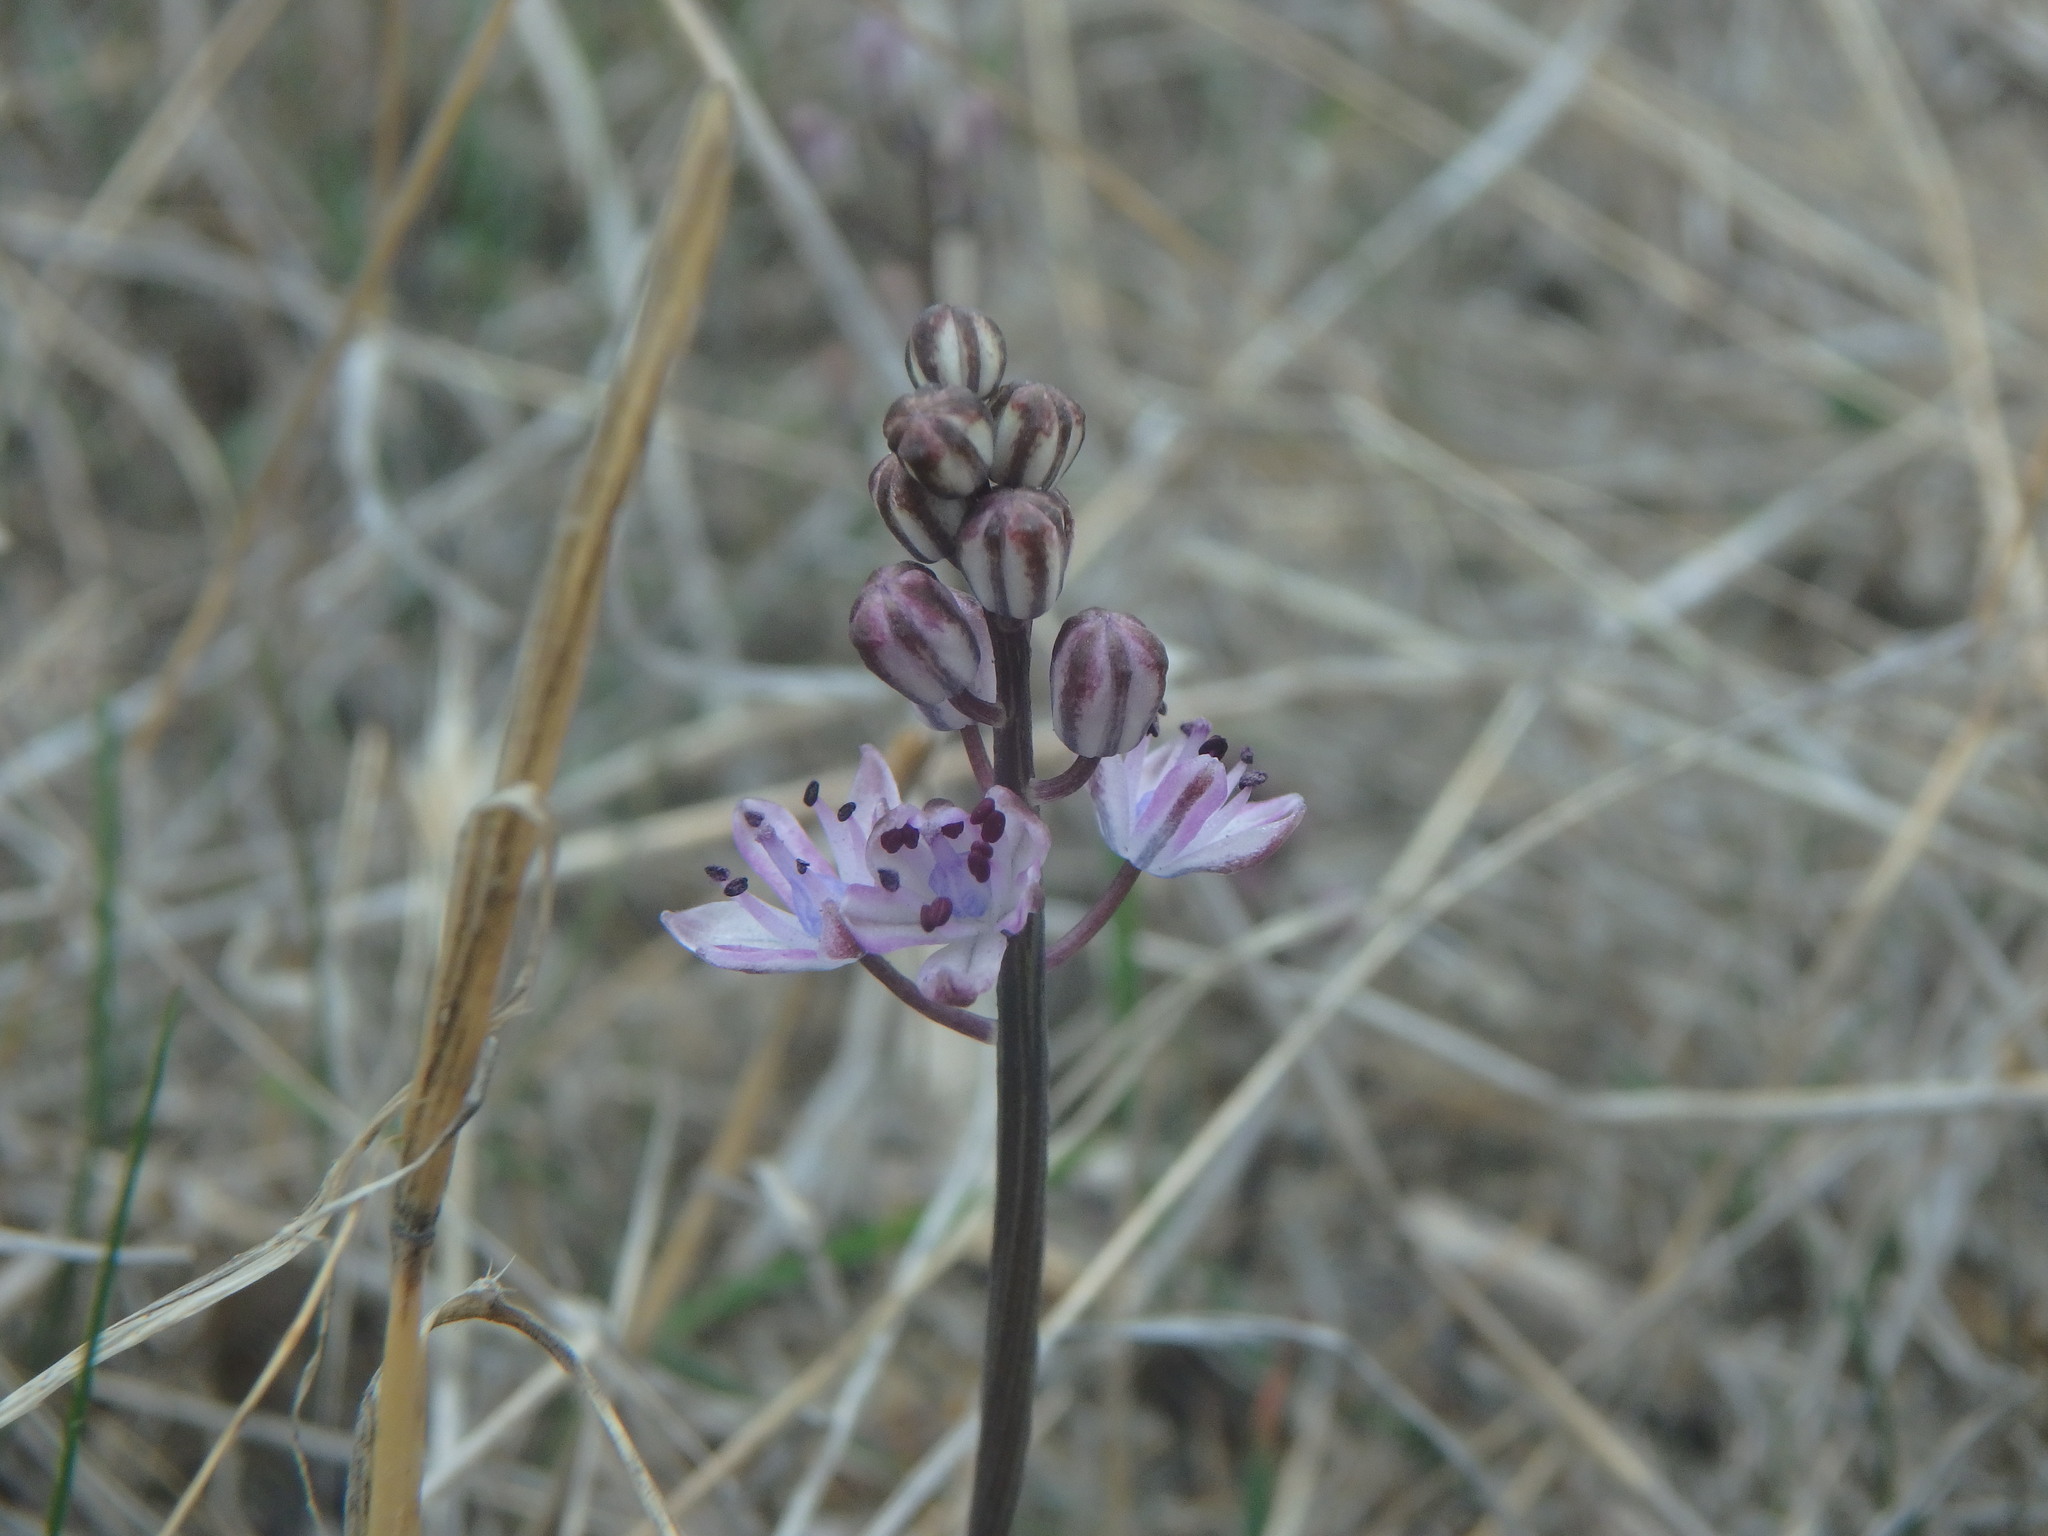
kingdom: Plantae
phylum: Tracheophyta
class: Liliopsida
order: Asparagales
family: Asparagaceae
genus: Prospero
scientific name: Prospero autumnale
